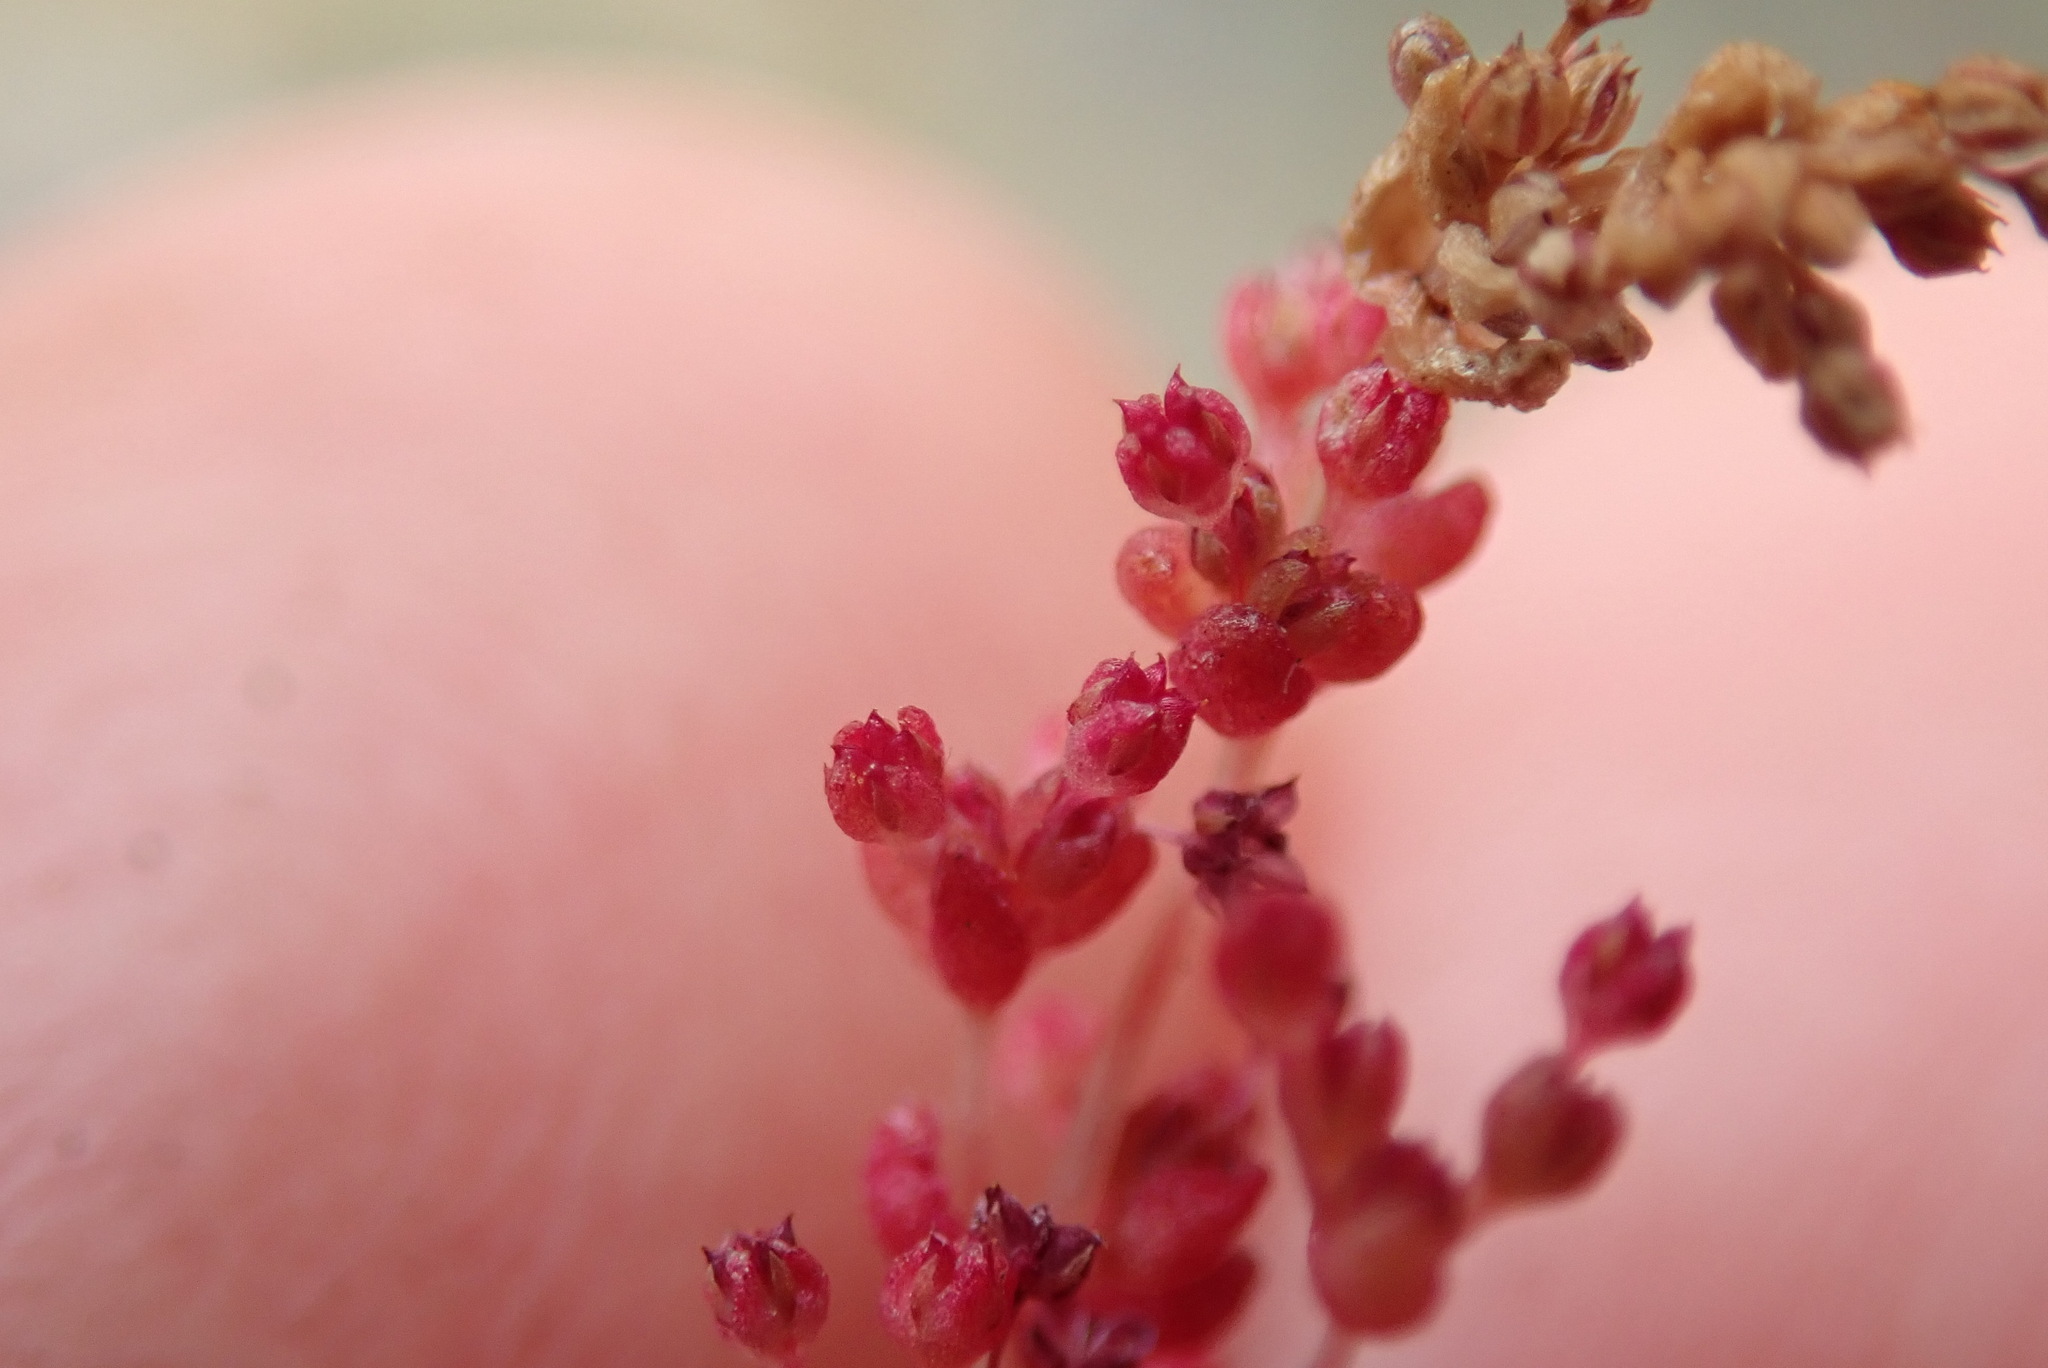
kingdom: Plantae
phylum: Tracheophyta
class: Magnoliopsida
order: Saxifragales
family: Crassulaceae
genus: Crassula
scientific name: Crassula connata
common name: Erect pygmyweed
